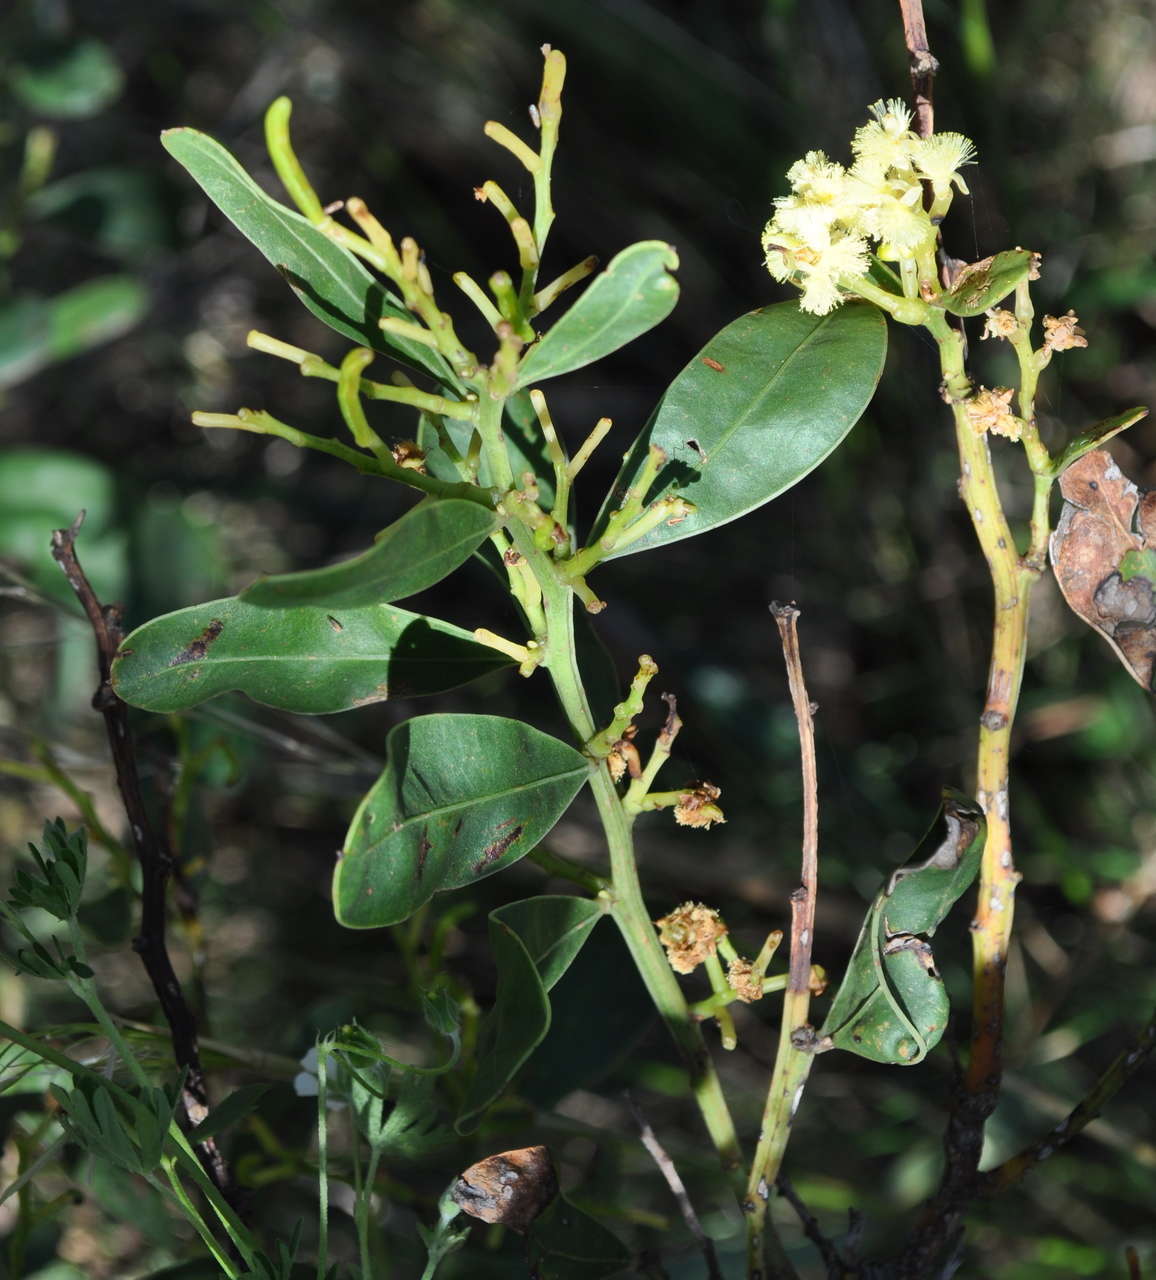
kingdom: Plantae
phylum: Tracheophyta
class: Magnoliopsida
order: Fabales
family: Fabaceae
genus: Acacia
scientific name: Acacia myrtifolia
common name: Myrtle wattle
